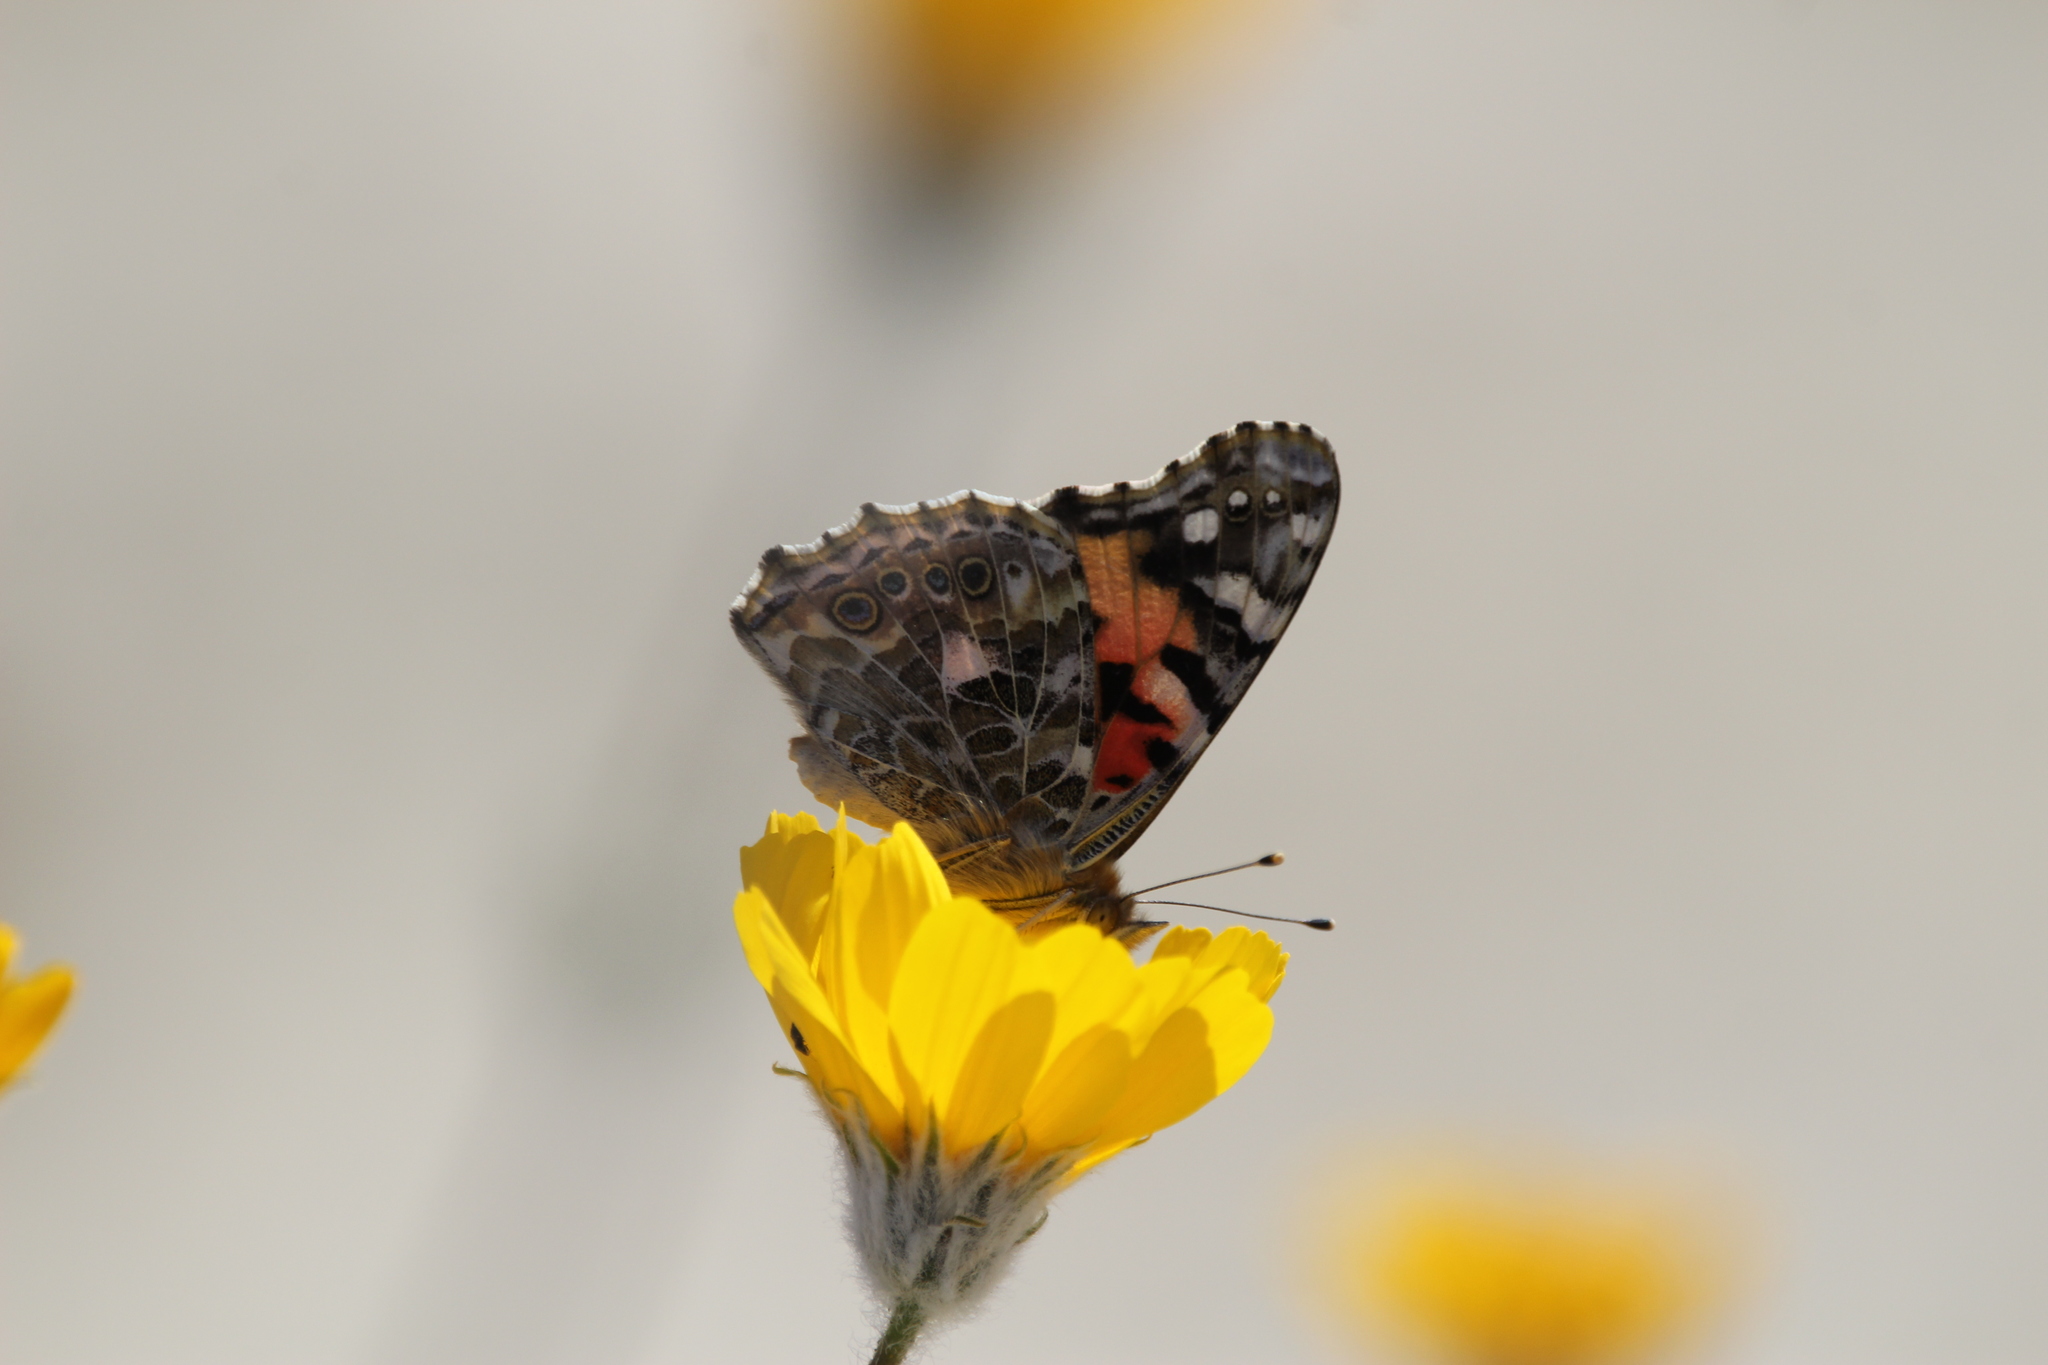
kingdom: Animalia
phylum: Arthropoda
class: Insecta
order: Lepidoptera
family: Nymphalidae
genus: Vanessa
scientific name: Vanessa cardui
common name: Painted lady
